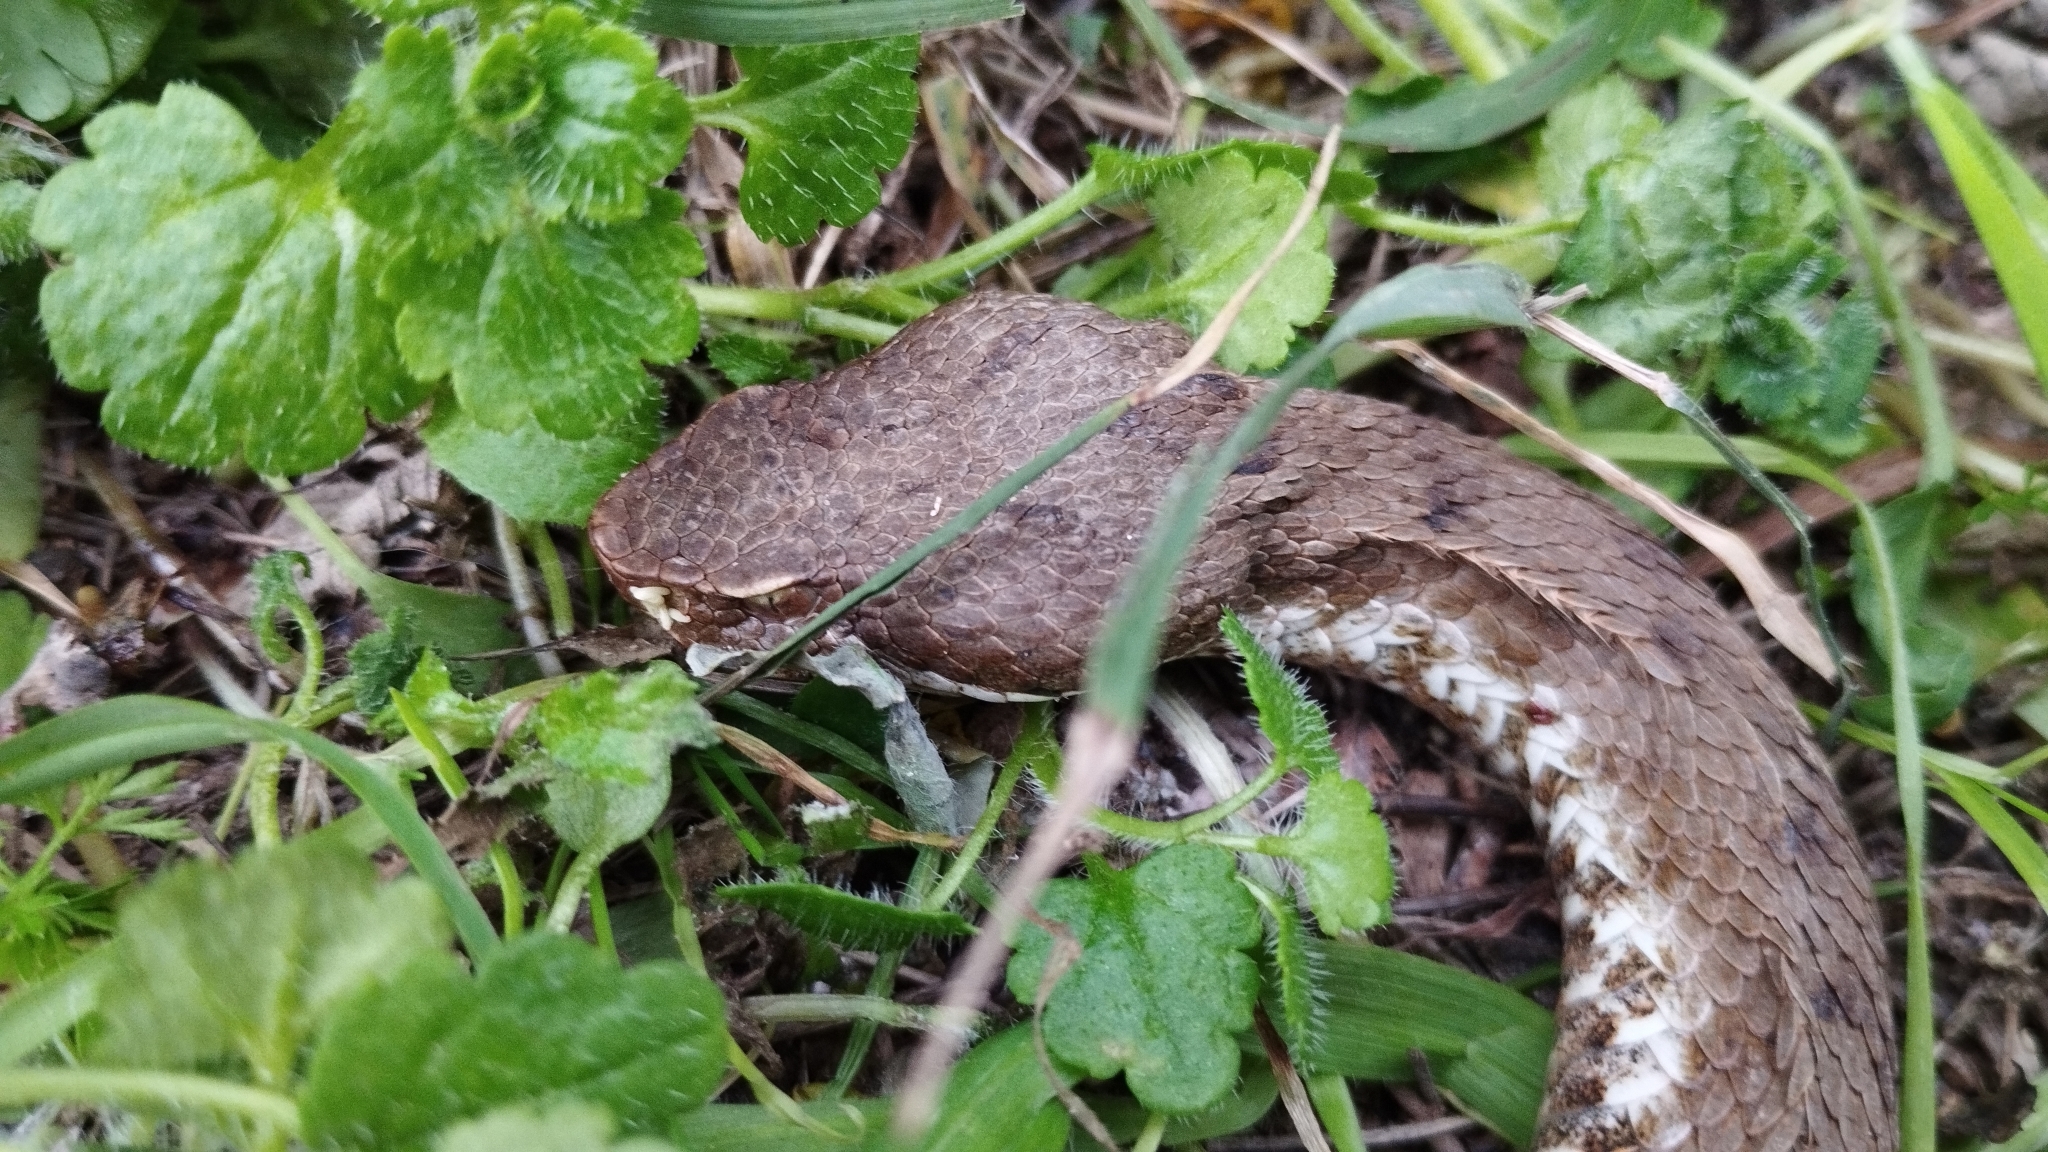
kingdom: Animalia
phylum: Chordata
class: Squamata
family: Viperidae
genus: Vipera
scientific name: Vipera aspis
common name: Asp viper
